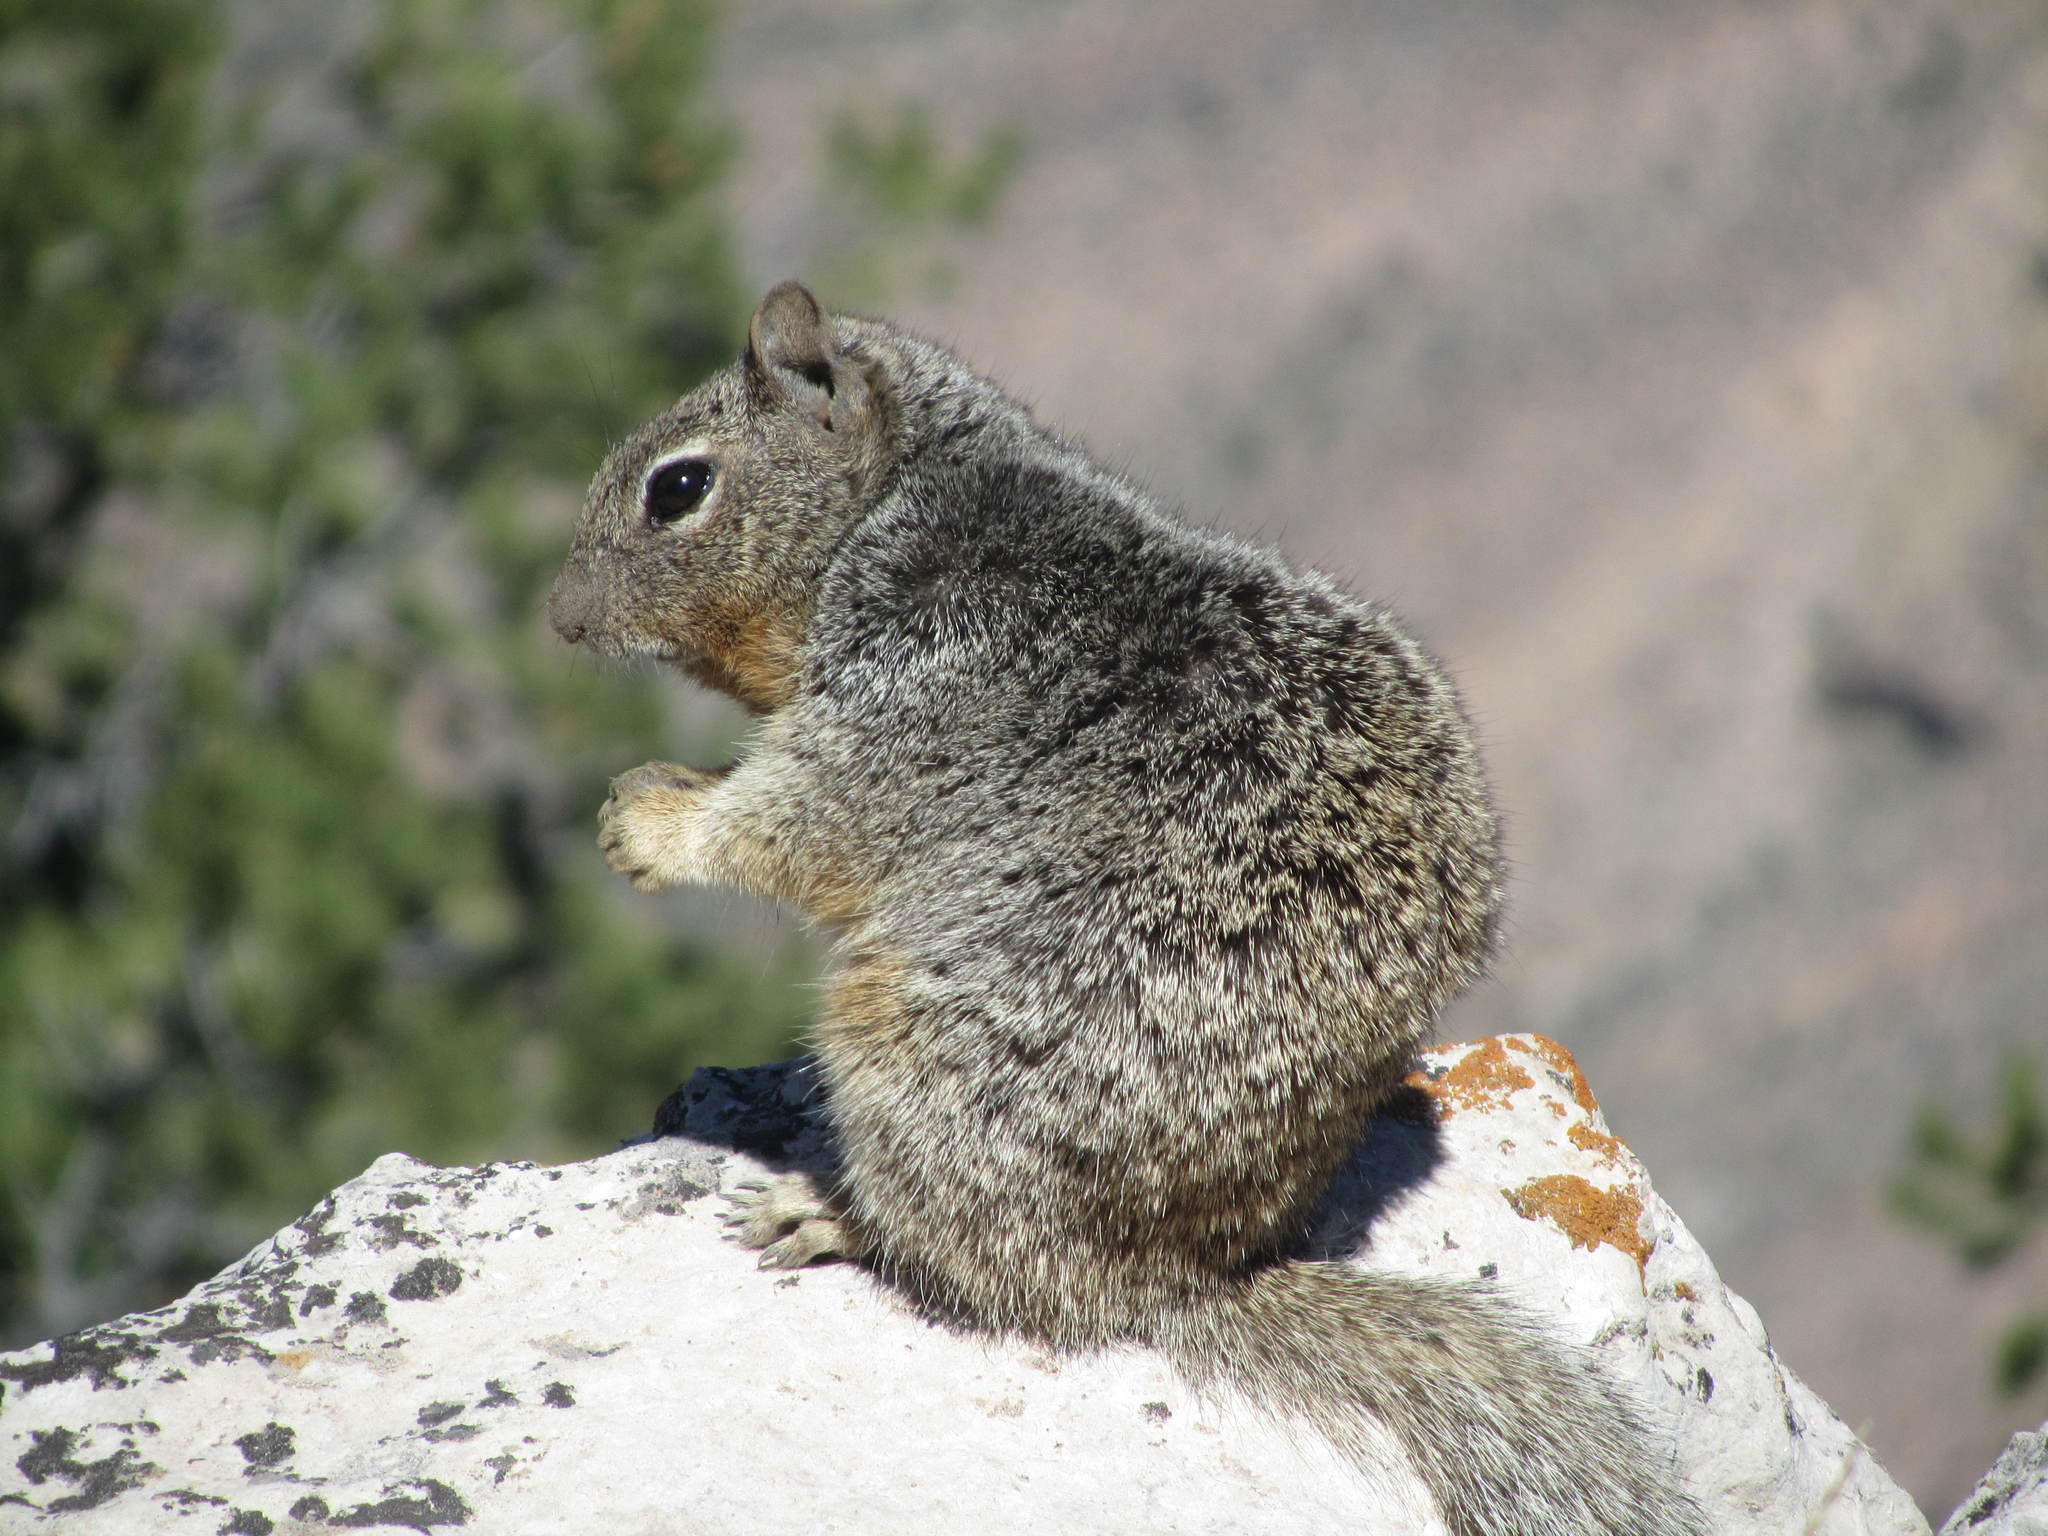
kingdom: Animalia
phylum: Chordata
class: Mammalia
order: Rodentia
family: Sciuridae
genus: Otospermophilus
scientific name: Otospermophilus variegatus
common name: Rock squirrel
